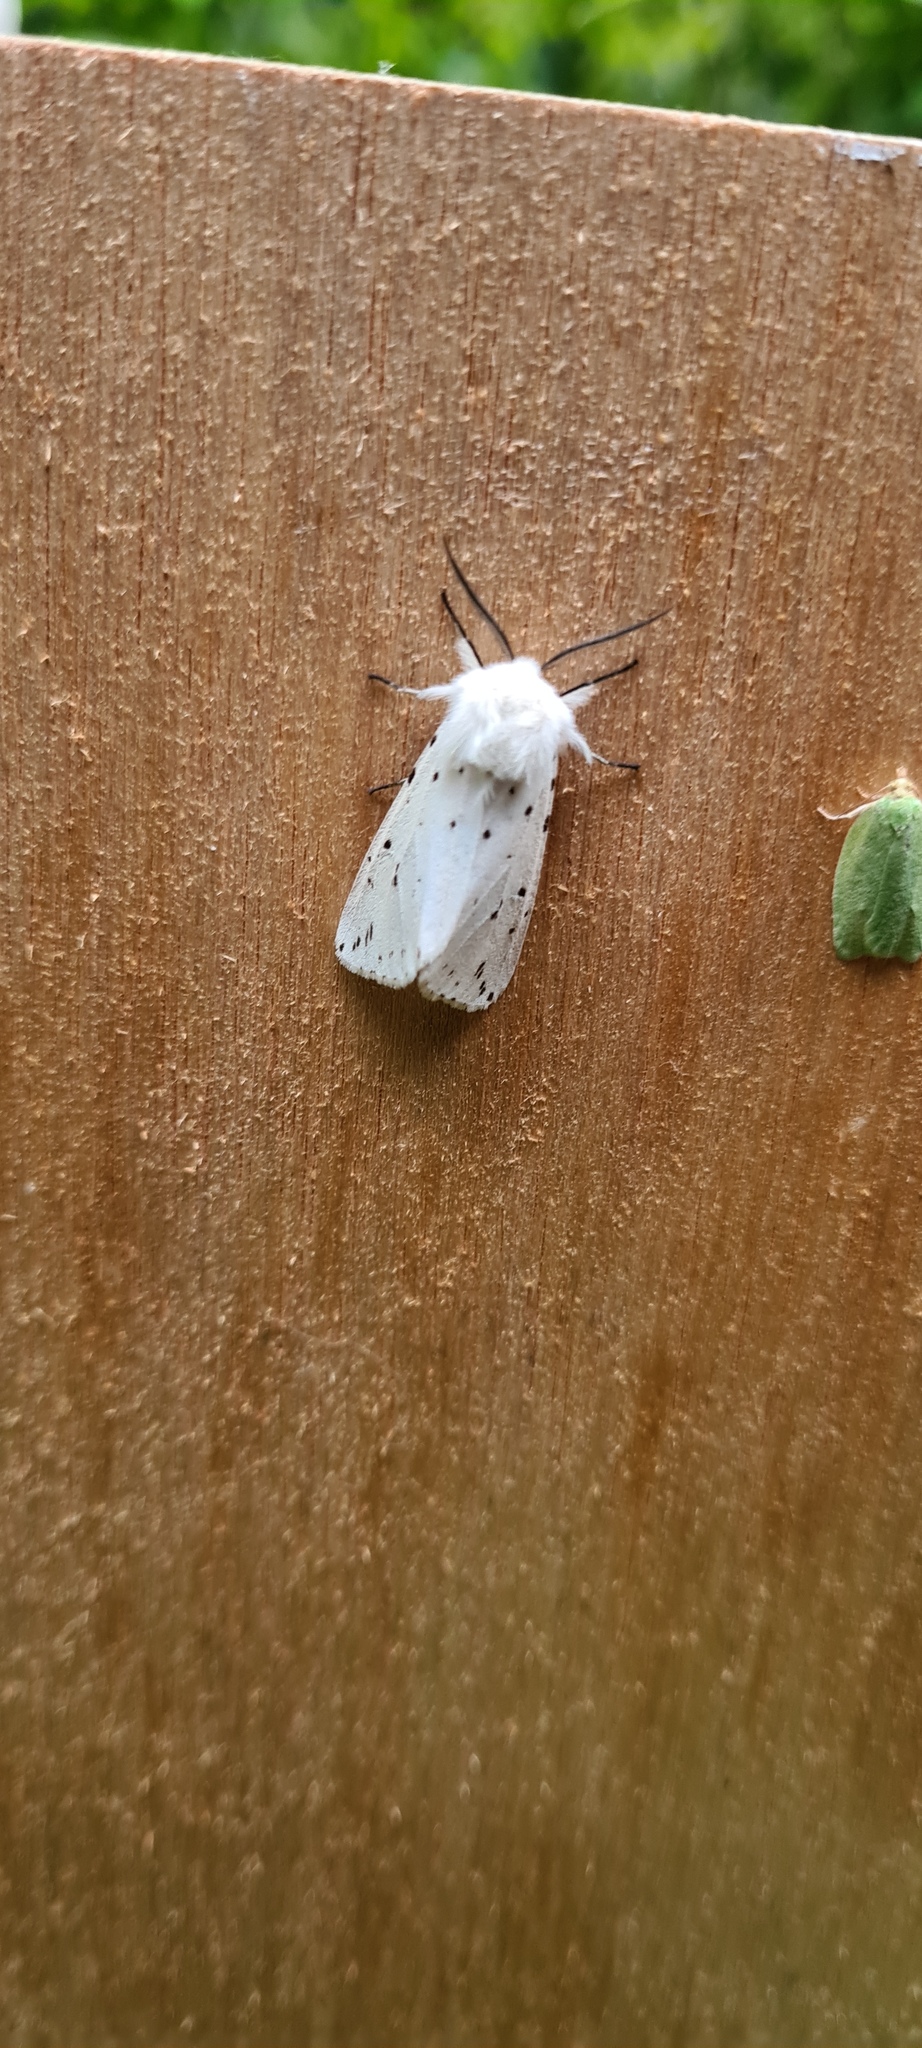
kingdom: Animalia
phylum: Arthropoda
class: Insecta
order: Lepidoptera
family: Erebidae
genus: Spilosoma
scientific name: Spilosoma lubricipeda
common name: White ermine
